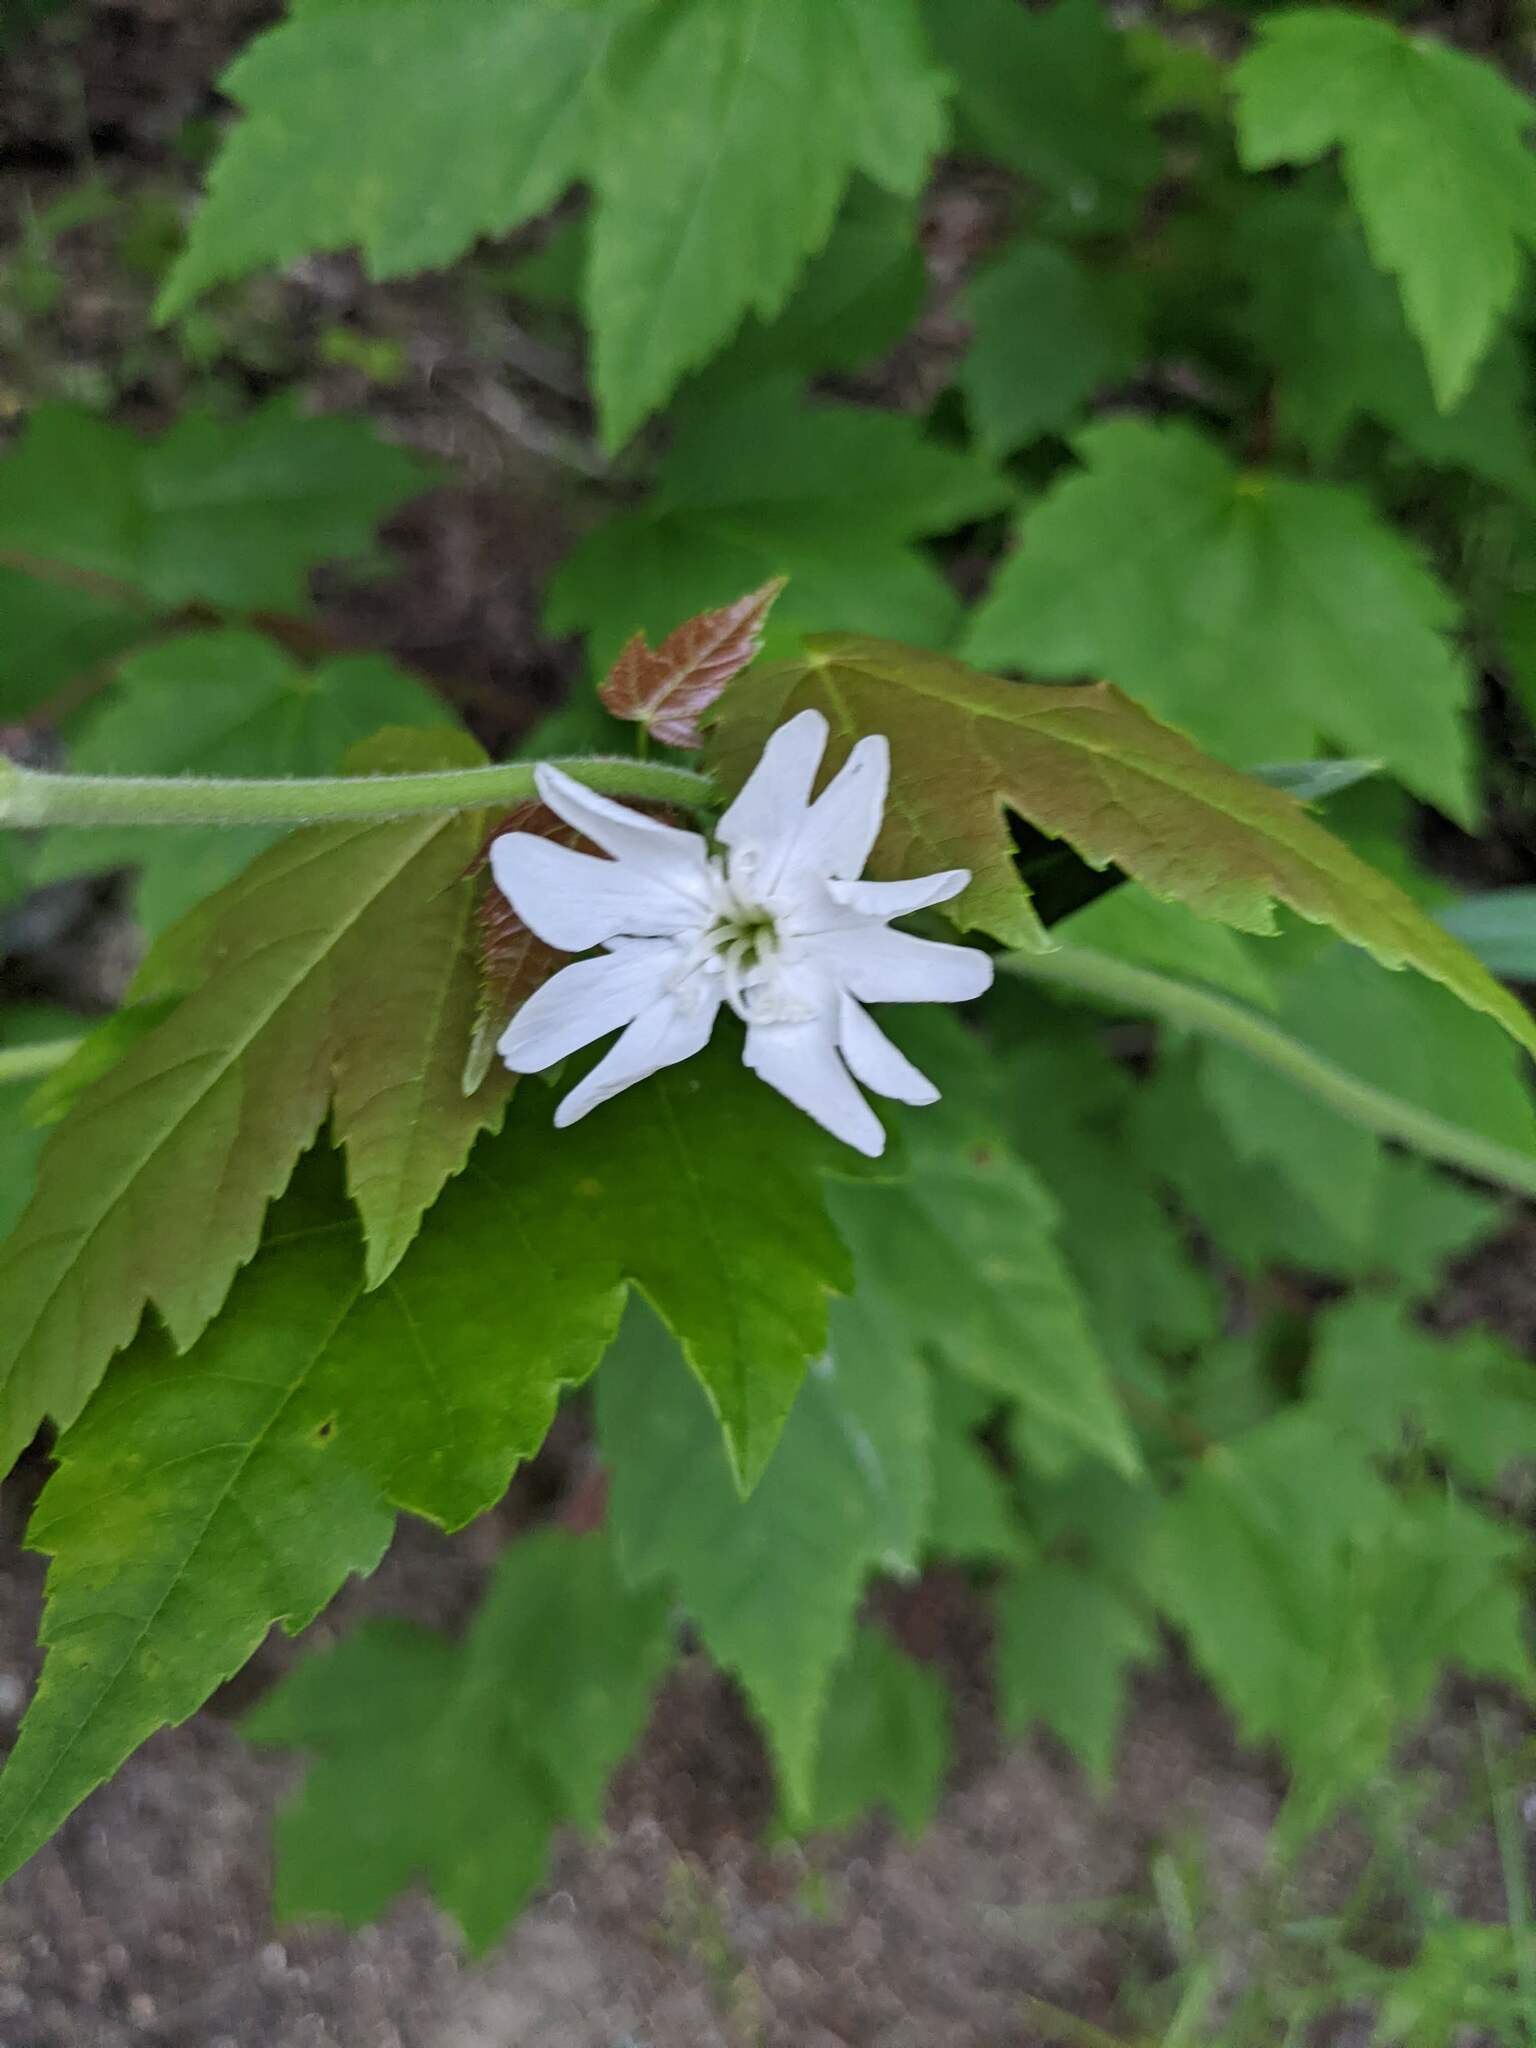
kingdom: Plantae
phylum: Tracheophyta
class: Magnoliopsida
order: Caryophyllales
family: Caryophyllaceae
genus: Silene
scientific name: Silene latifolia
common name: White campion
